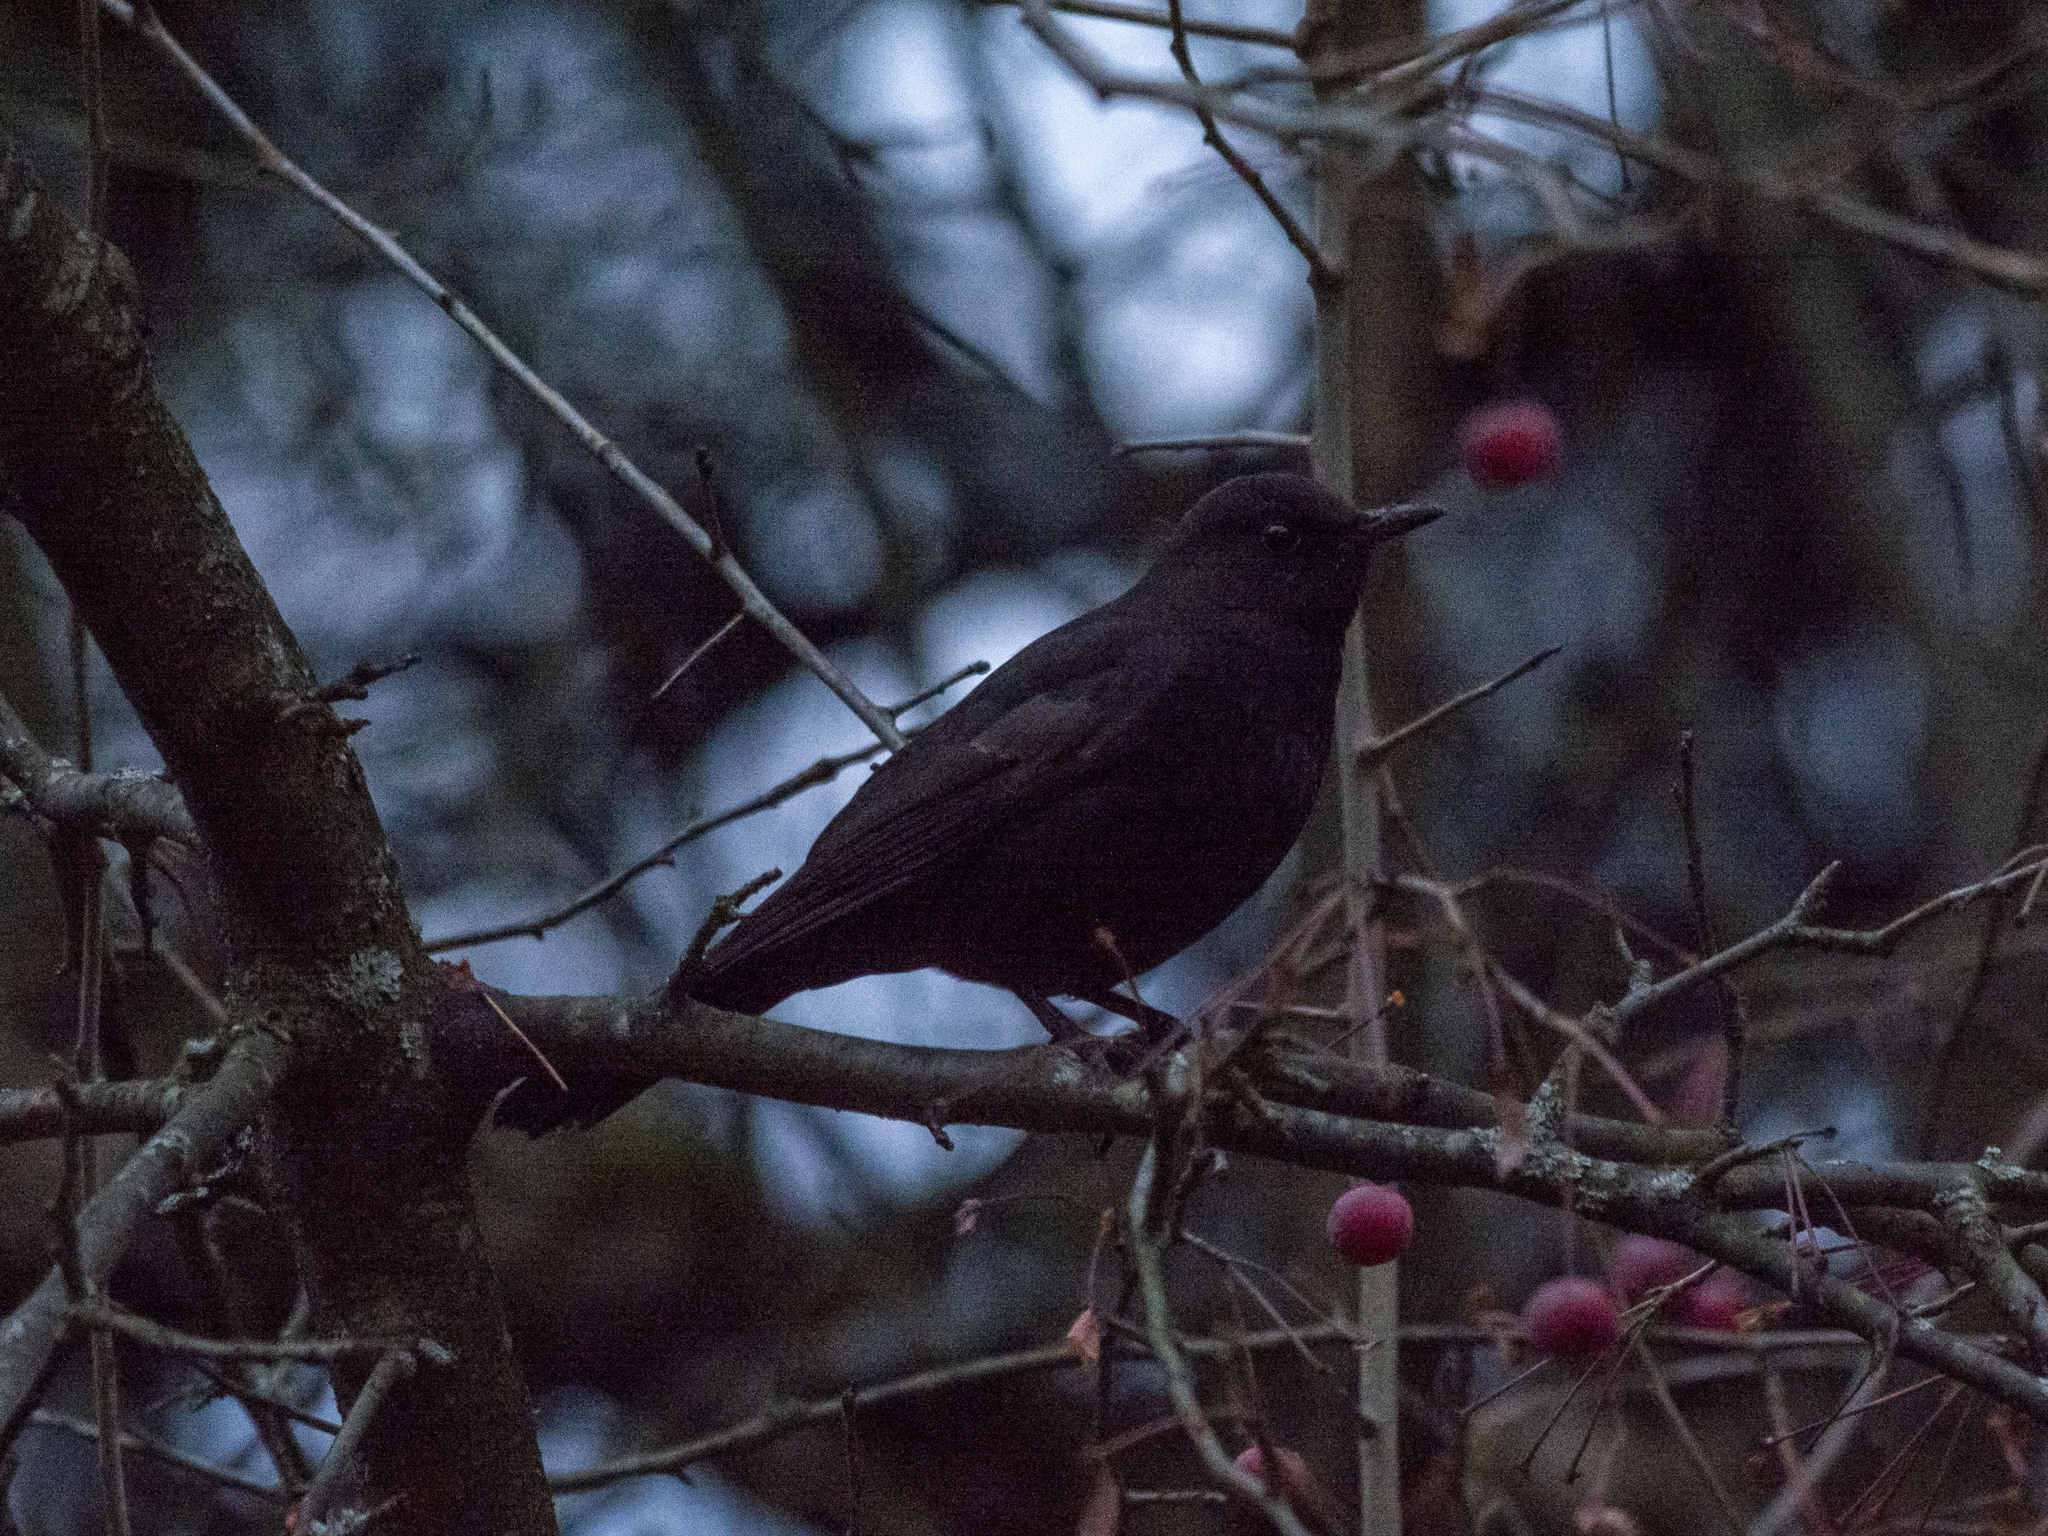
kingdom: Animalia
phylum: Chordata
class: Aves
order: Passeriformes
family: Turdidae
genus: Turdus
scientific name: Turdus merula
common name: Common blackbird
